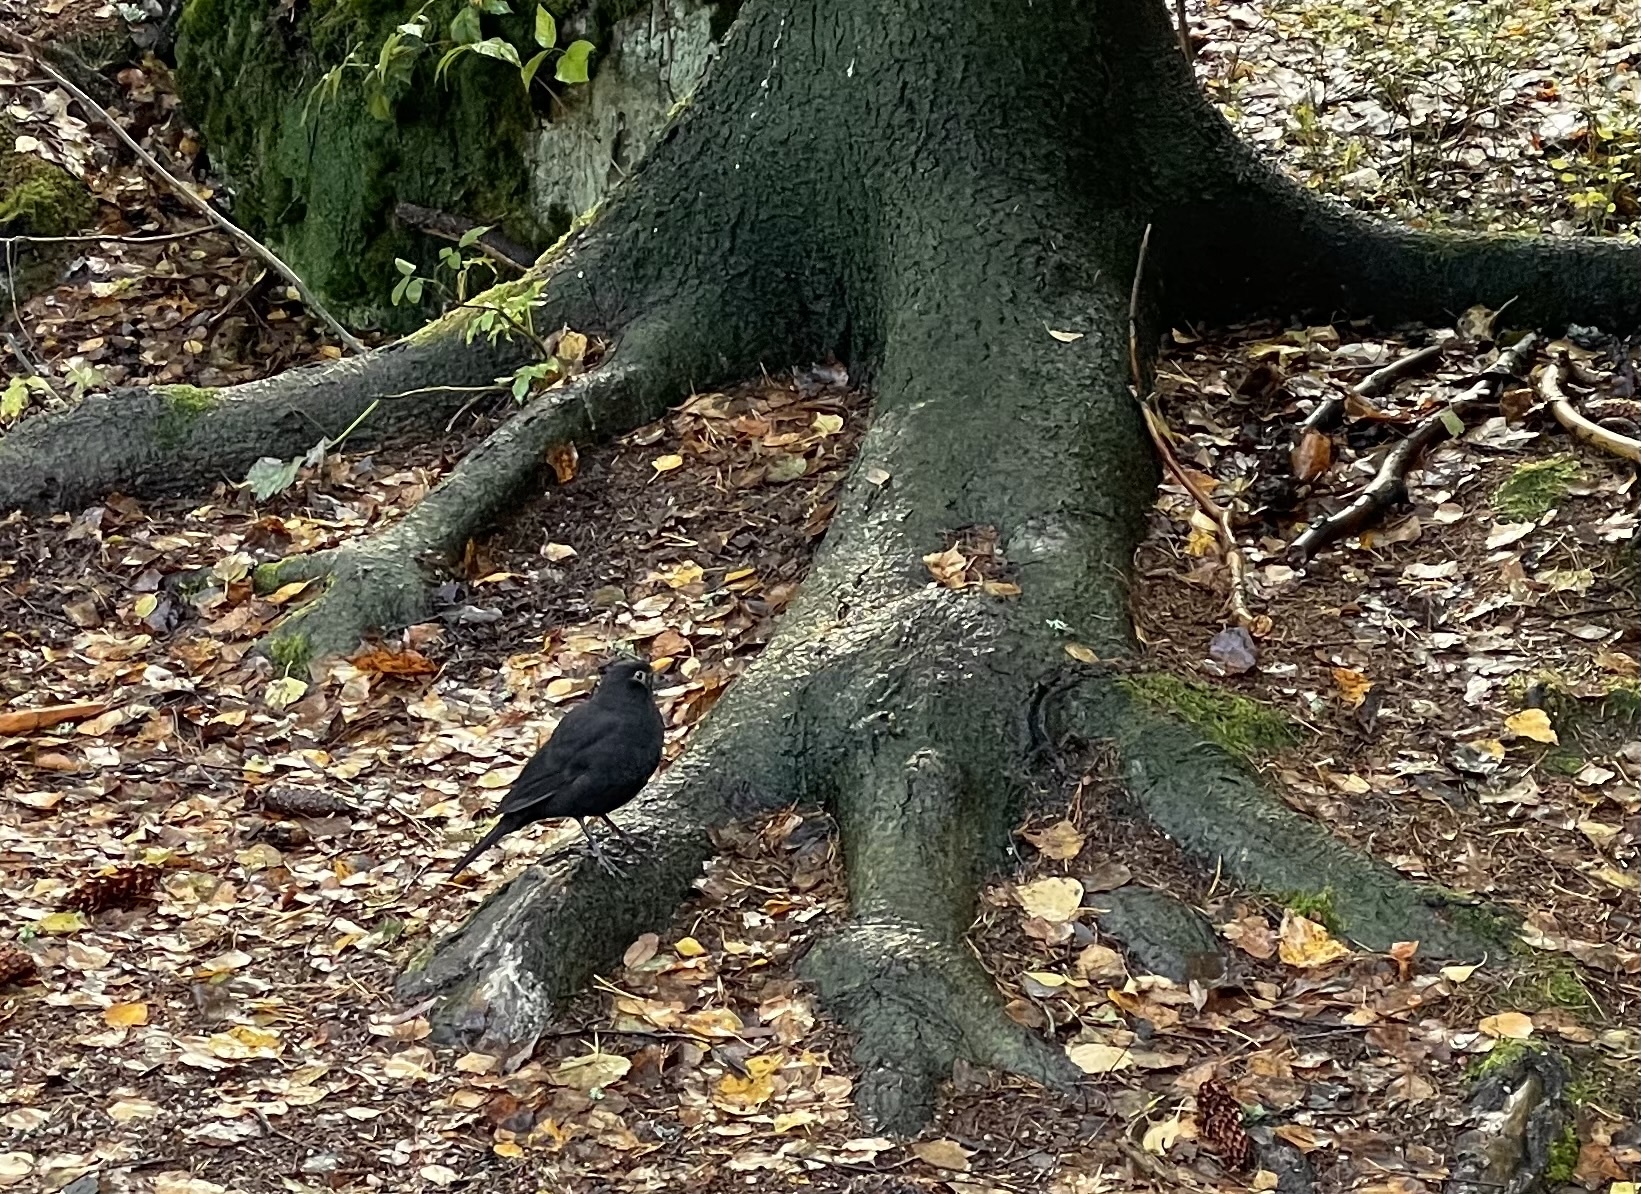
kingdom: Animalia
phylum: Chordata
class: Aves
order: Passeriformes
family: Turdidae
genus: Turdus
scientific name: Turdus merula
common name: Common blackbird
